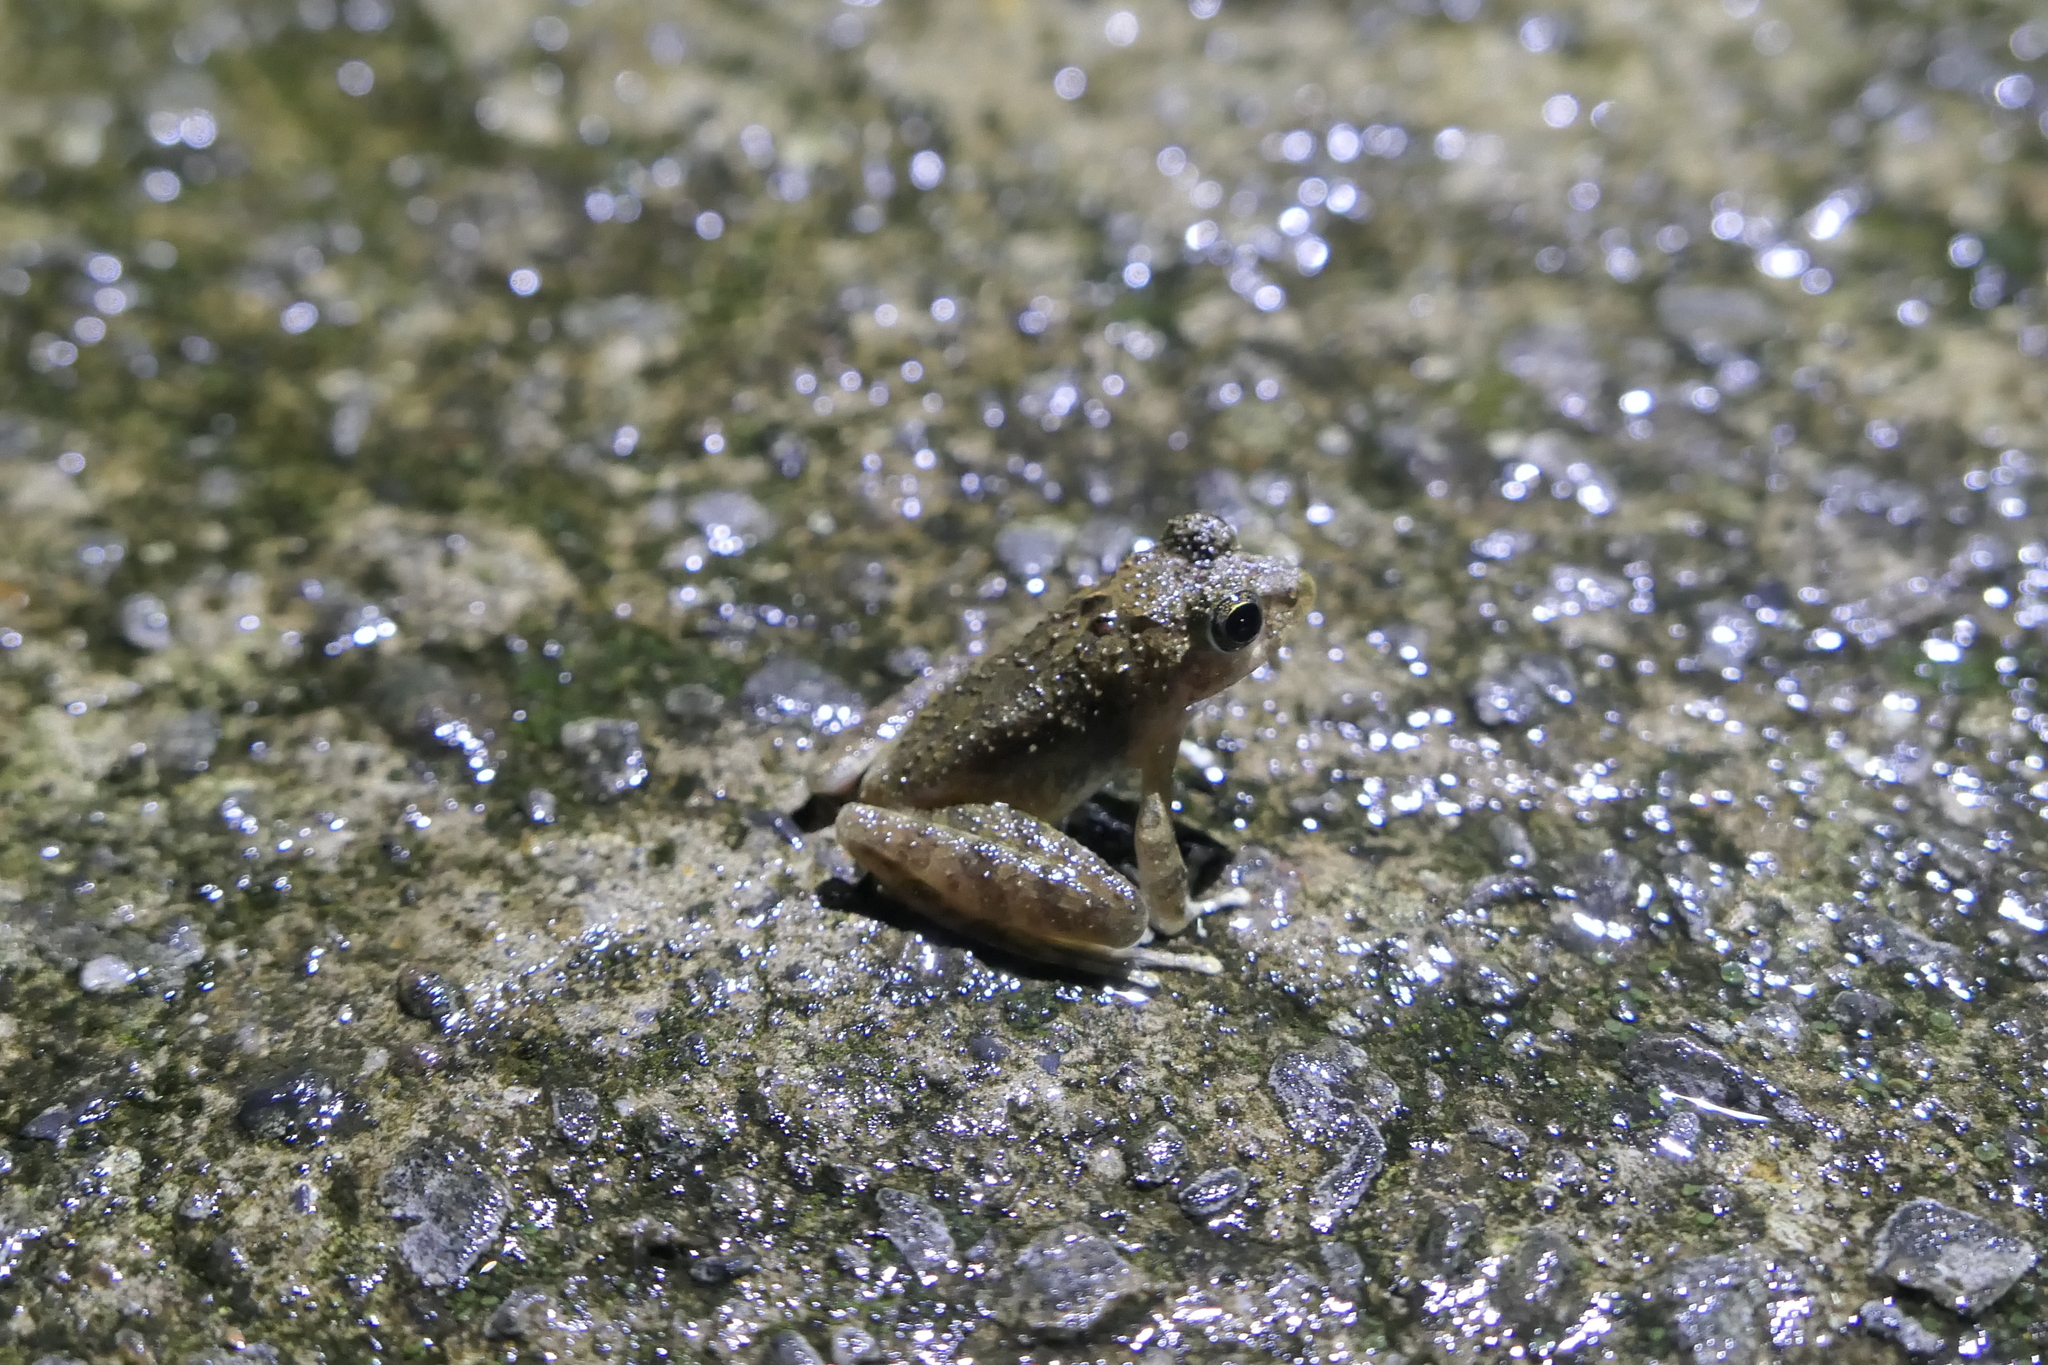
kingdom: Animalia
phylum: Chordata
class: Amphibia
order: Anura
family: Rhacophoridae
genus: Buergeria
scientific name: Buergeria choui
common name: Yaeyama kajika frog
